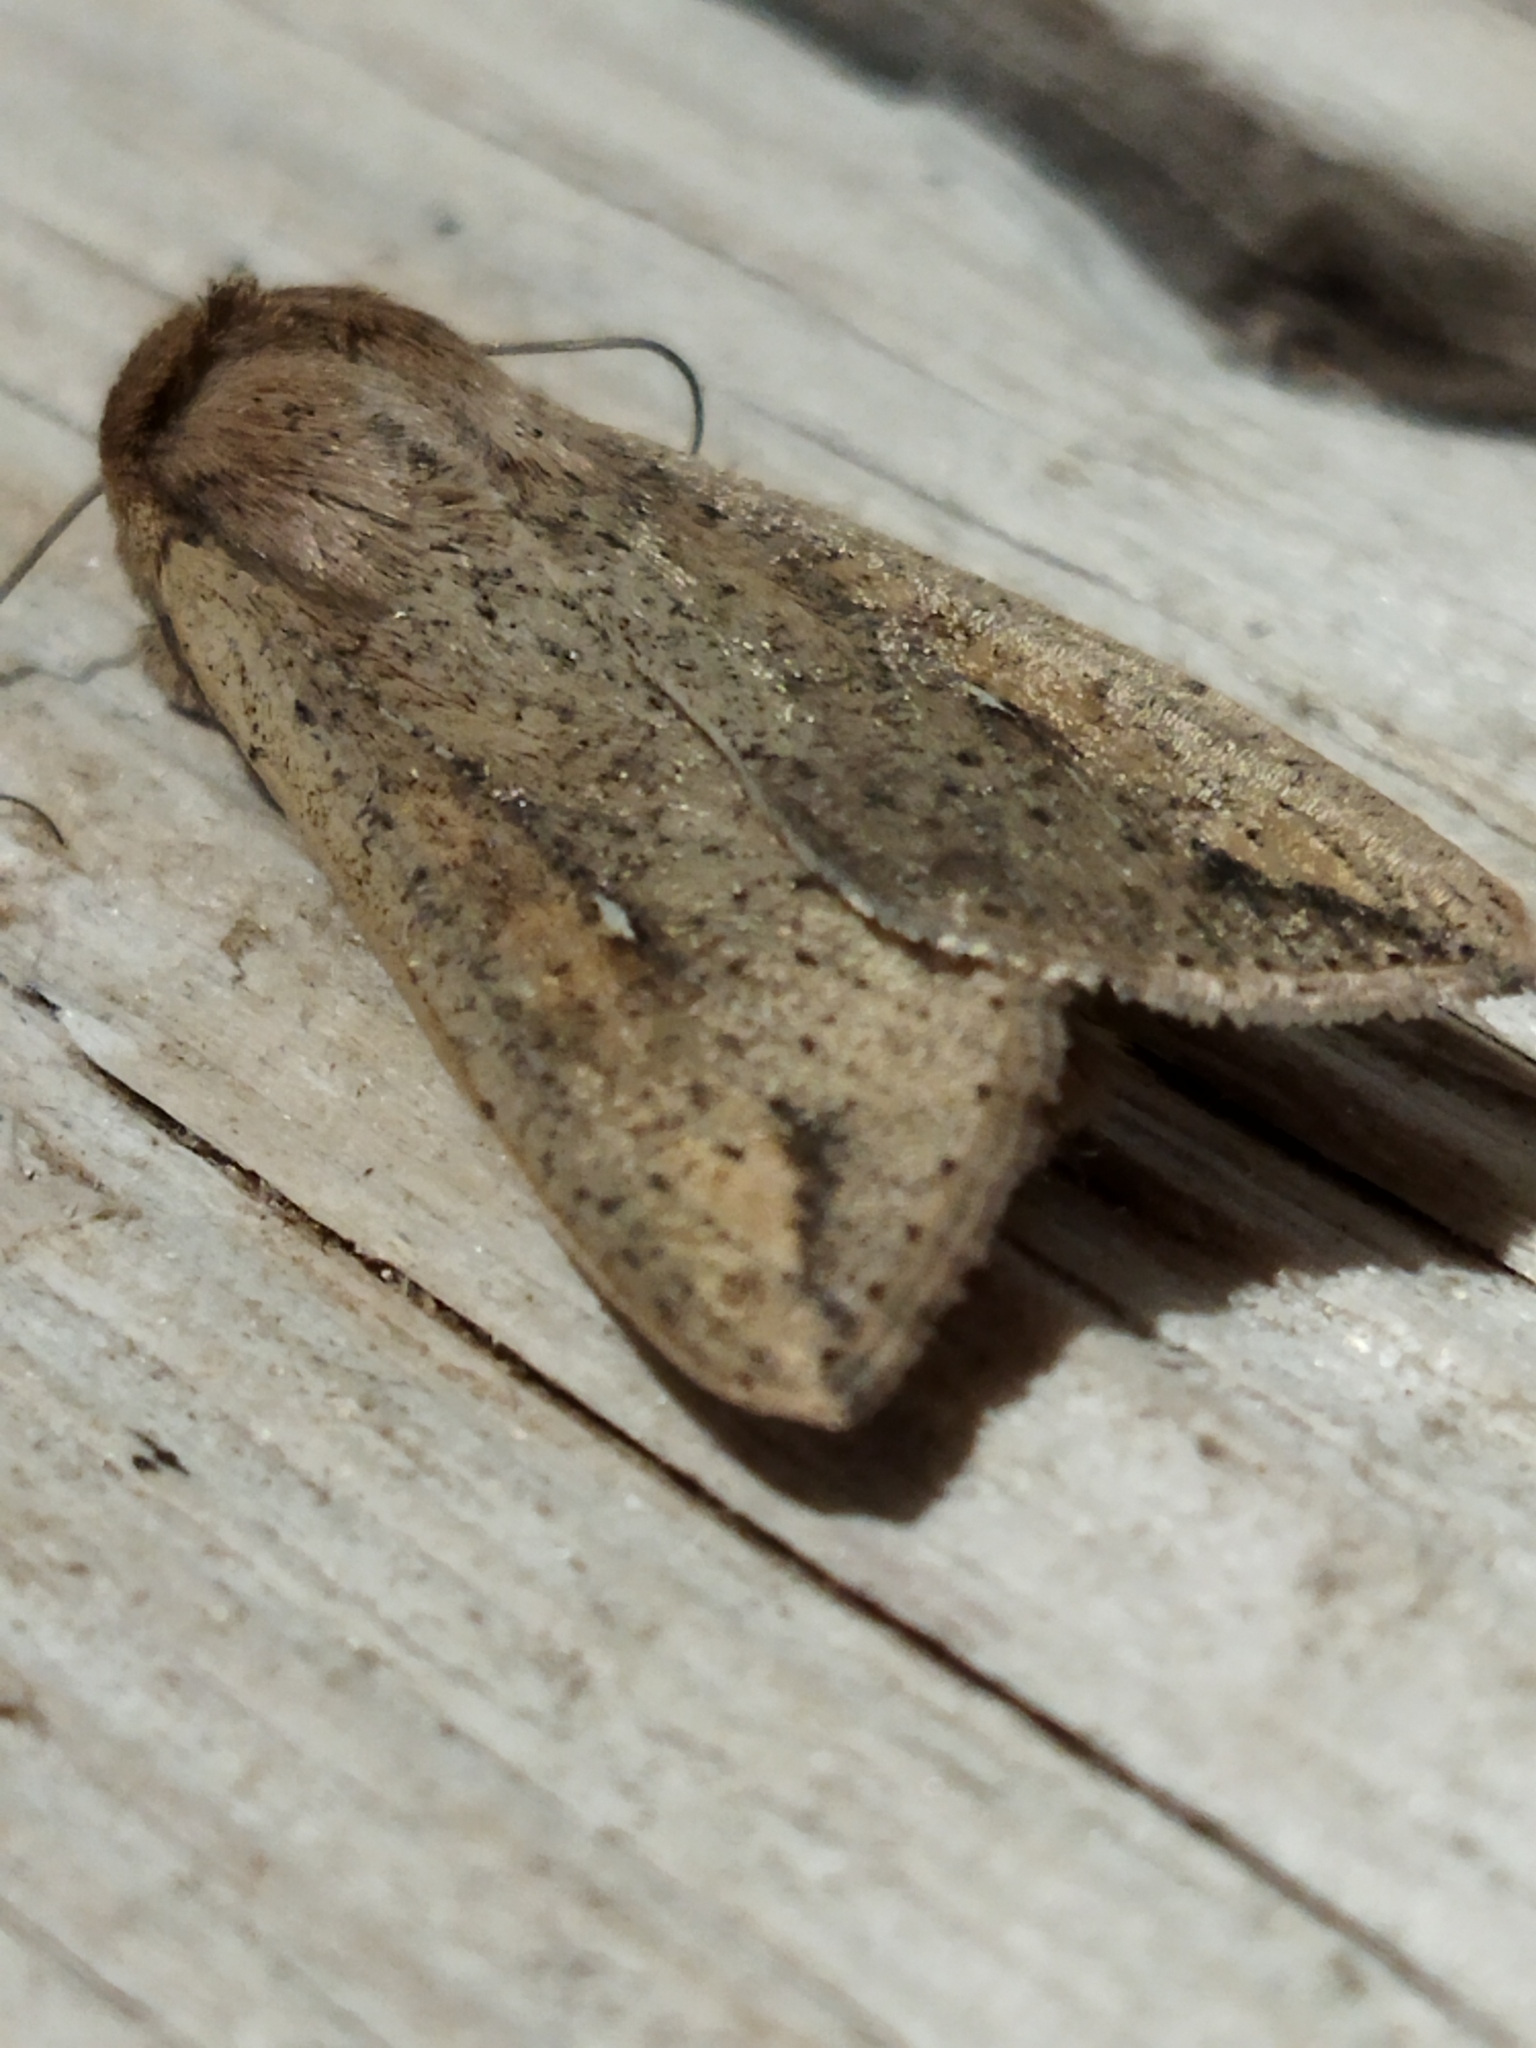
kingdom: Animalia
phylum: Arthropoda
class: Insecta
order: Lepidoptera
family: Noctuidae
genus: Mythimna
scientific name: Mythimna unipuncta
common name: White-speck
